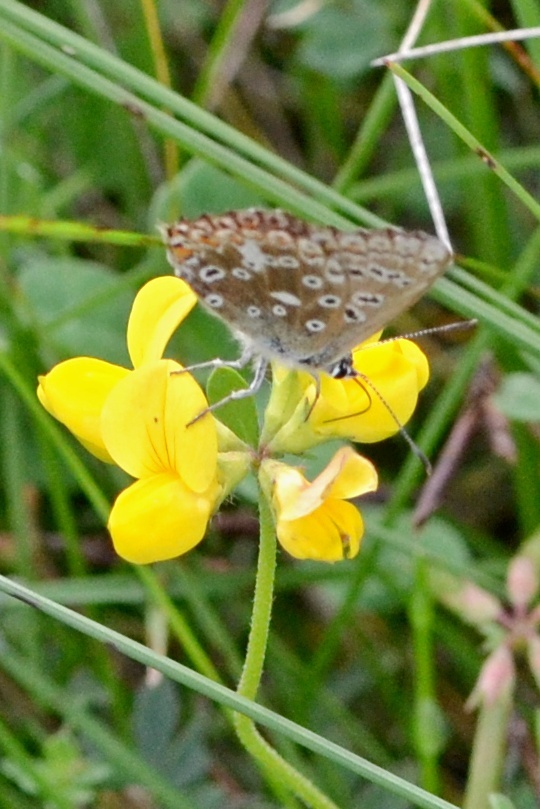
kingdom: Animalia
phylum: Arthropoda
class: Insecta
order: Lepidoptera
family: Lycaenidae
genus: Lysandra
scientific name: Lysandra coridon
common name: Chalkhill blue
